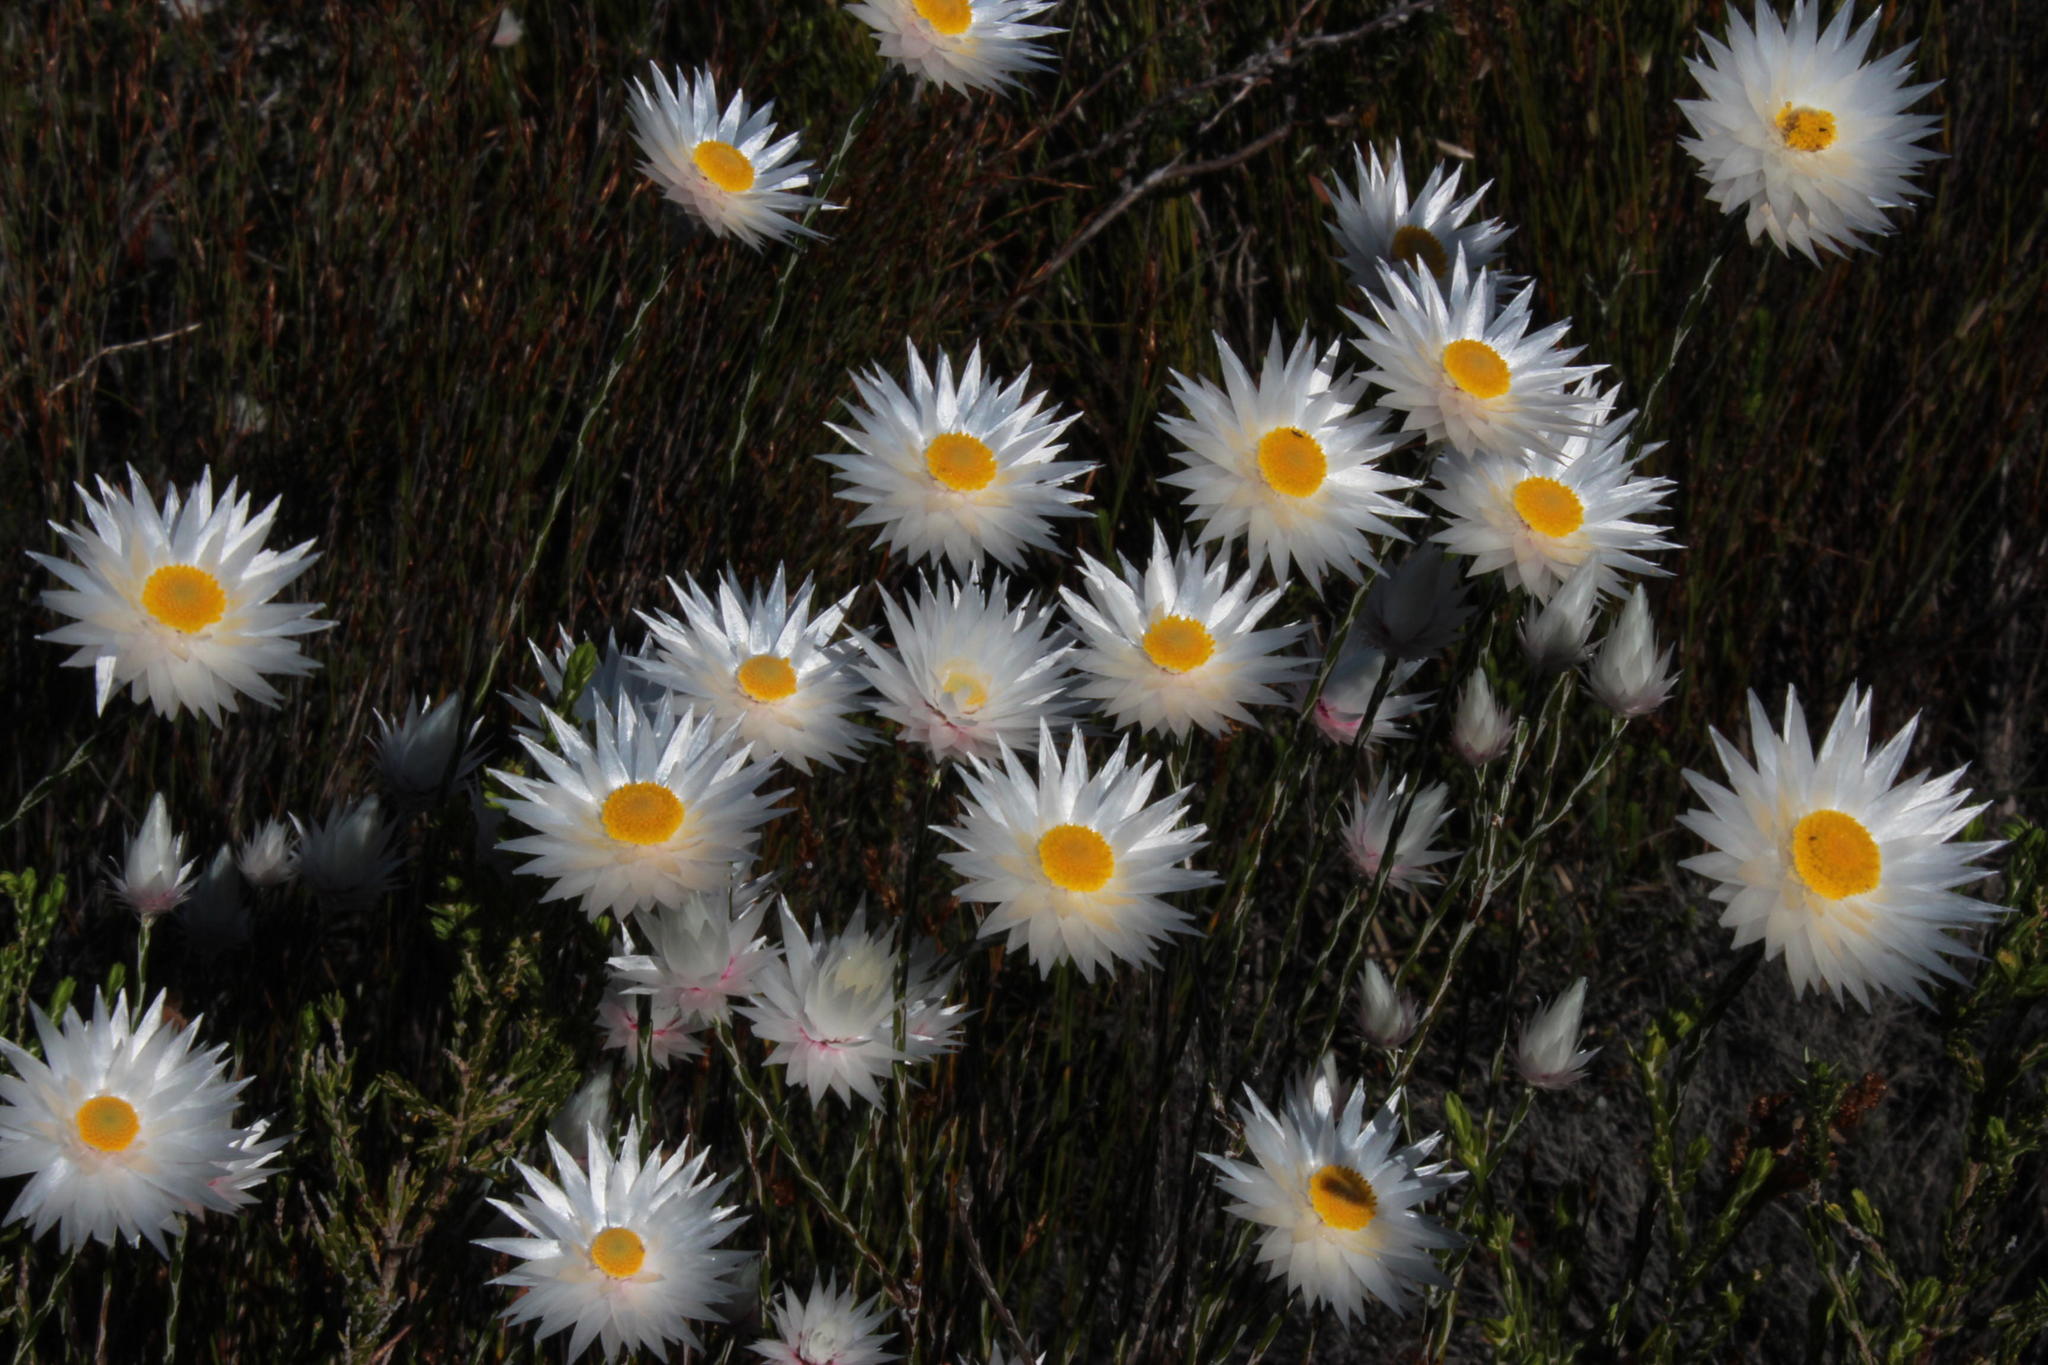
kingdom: Plantae
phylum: Tracheophyta
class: Magnoliopsida
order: Asterales
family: Asteraceae
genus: Edmondia
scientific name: Edmondia sesamoides
